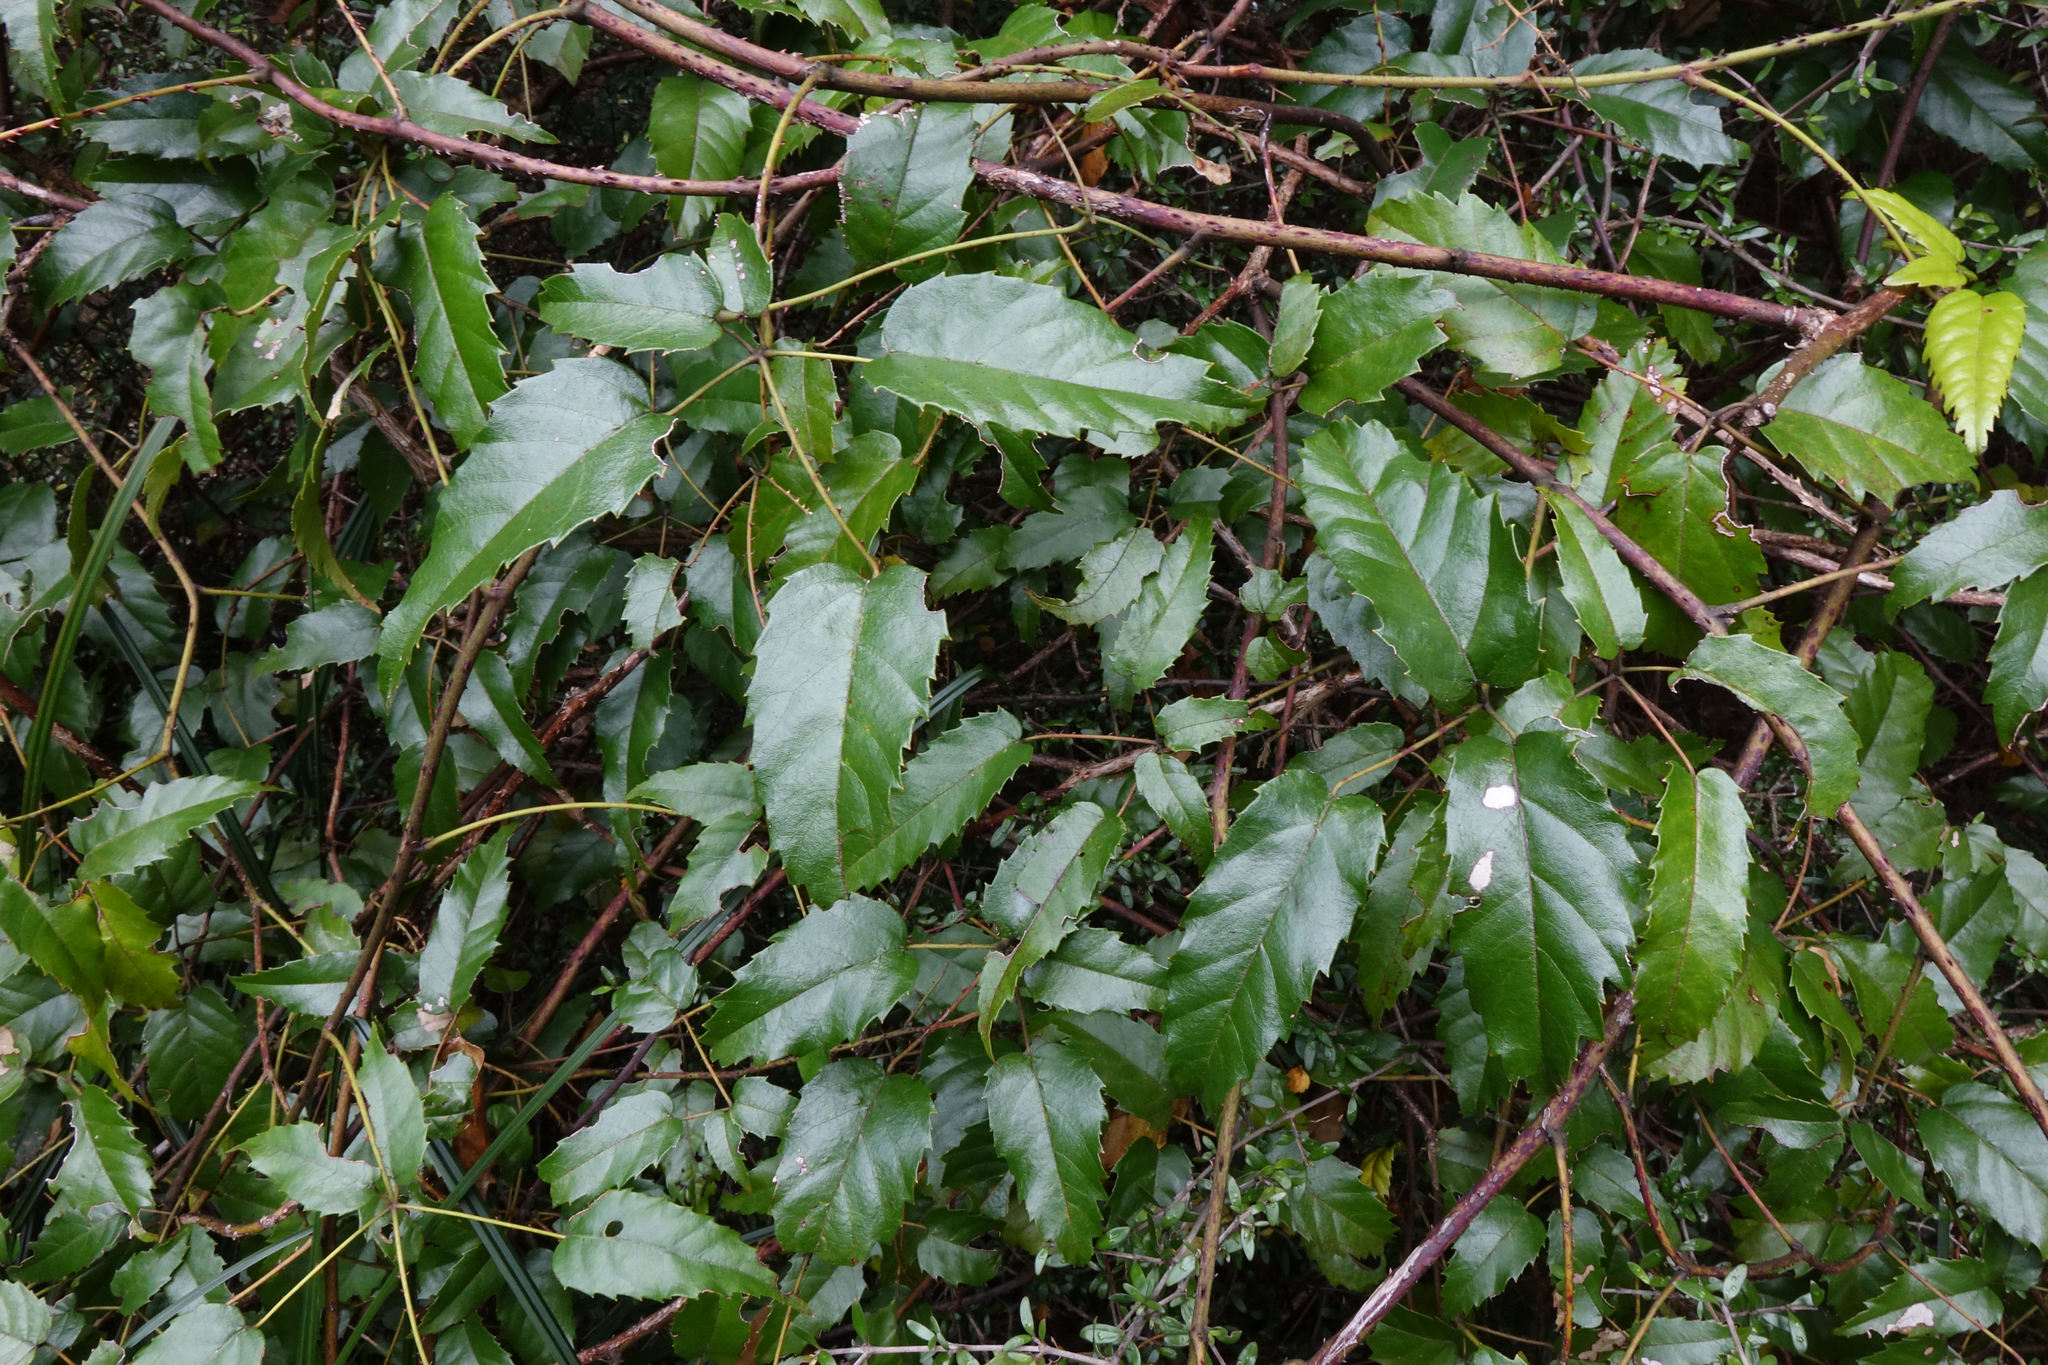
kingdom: Plantae
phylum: Tracheophyta
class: Magnoliopsida
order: Rosales
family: Rosaceae
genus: Rubus
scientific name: Rubus cissoides
